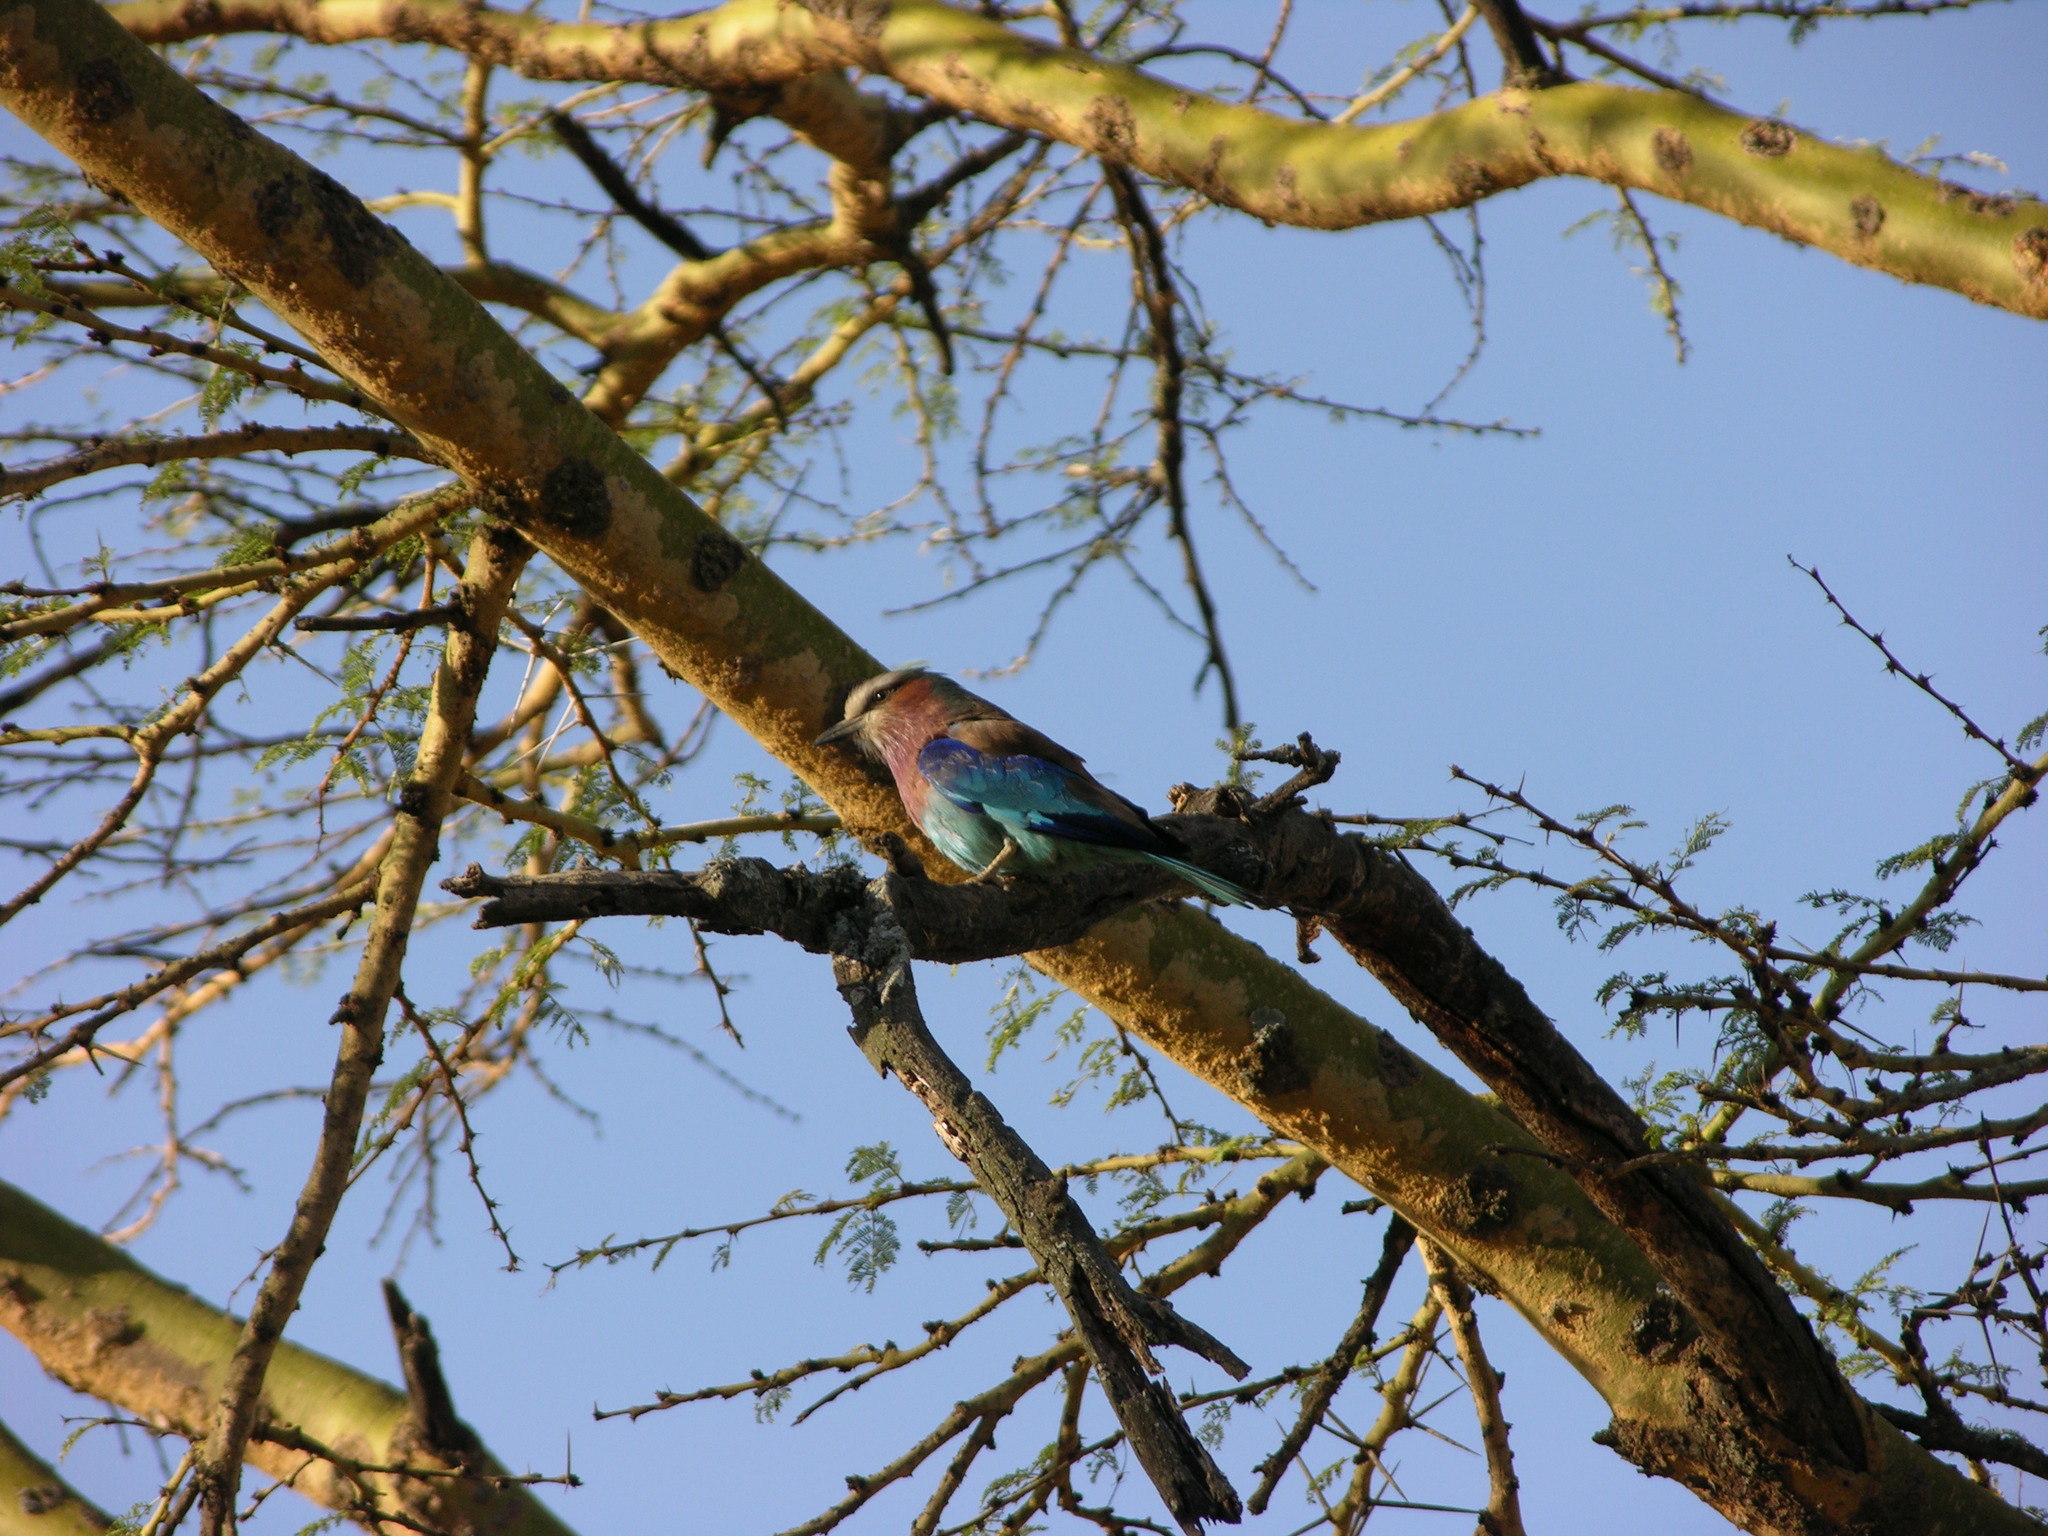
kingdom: Animalia
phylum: Chordata
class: Aves
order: Coraciiformes
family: Coraciidae
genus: Coracias
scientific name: Coracias caudatus
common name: Lilac-breasted roller
